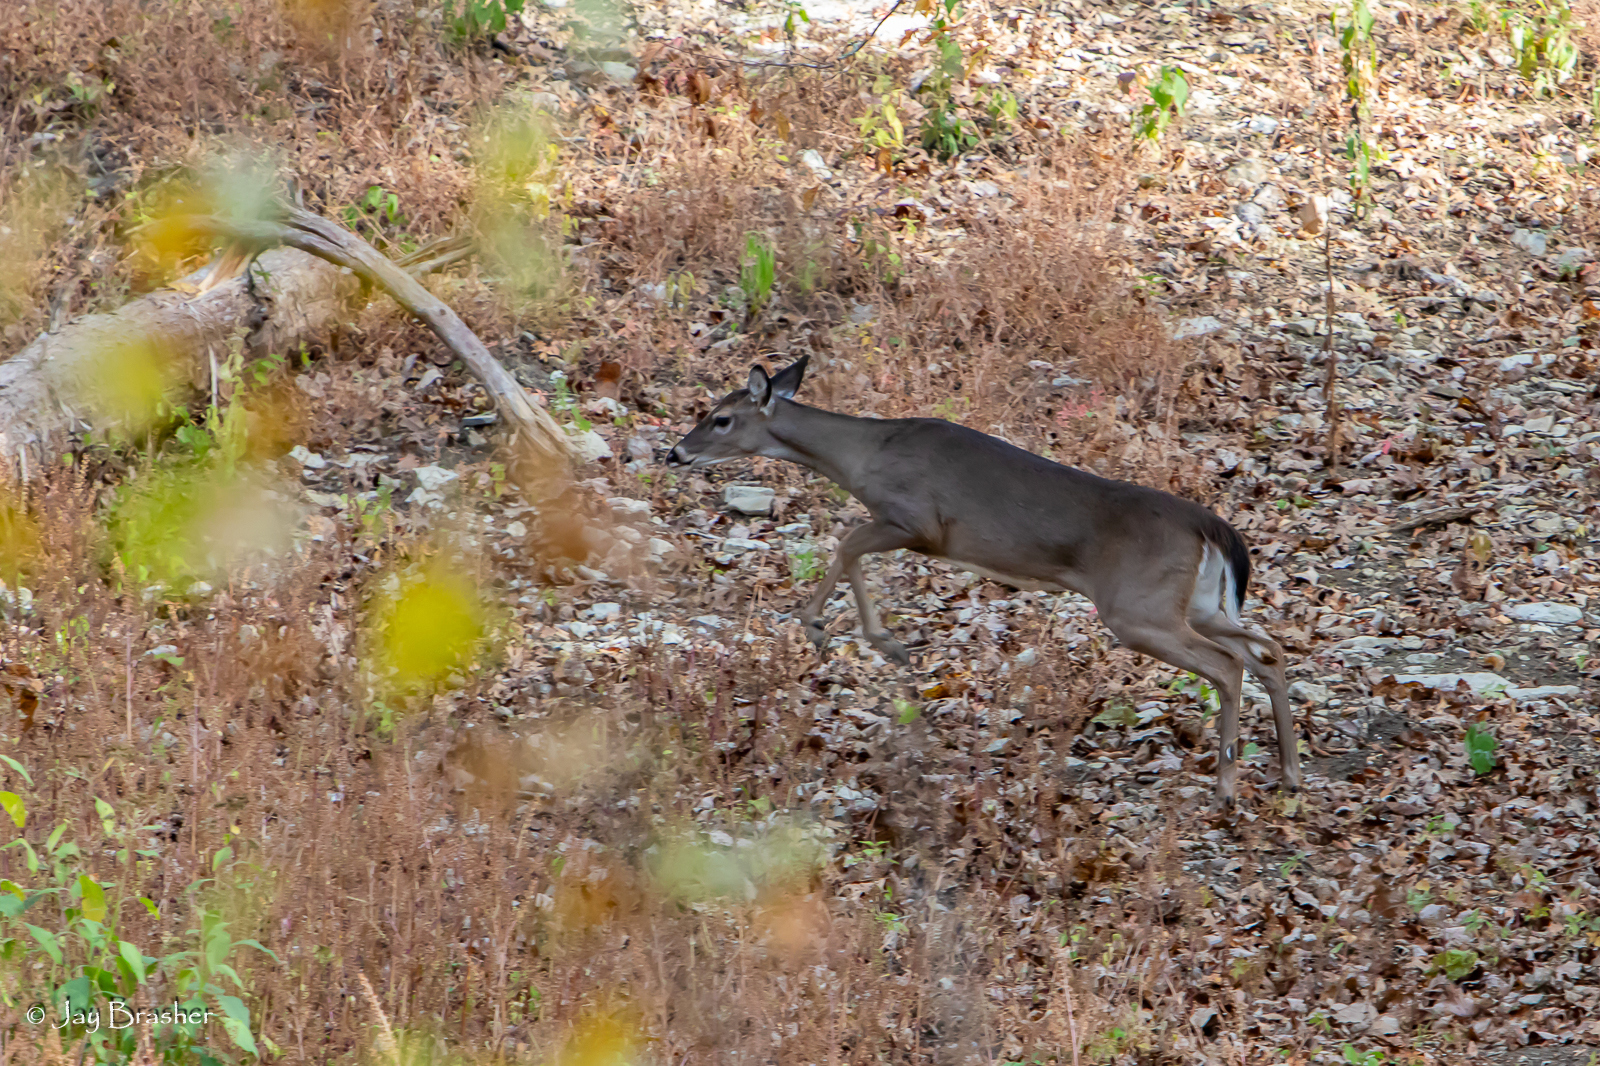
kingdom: Animalia
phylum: Chordata
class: Mammalia
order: Artiodactyla
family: Cervidae
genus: Odocoileus
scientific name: Odocoileus virginianus
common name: White-tailed deer
